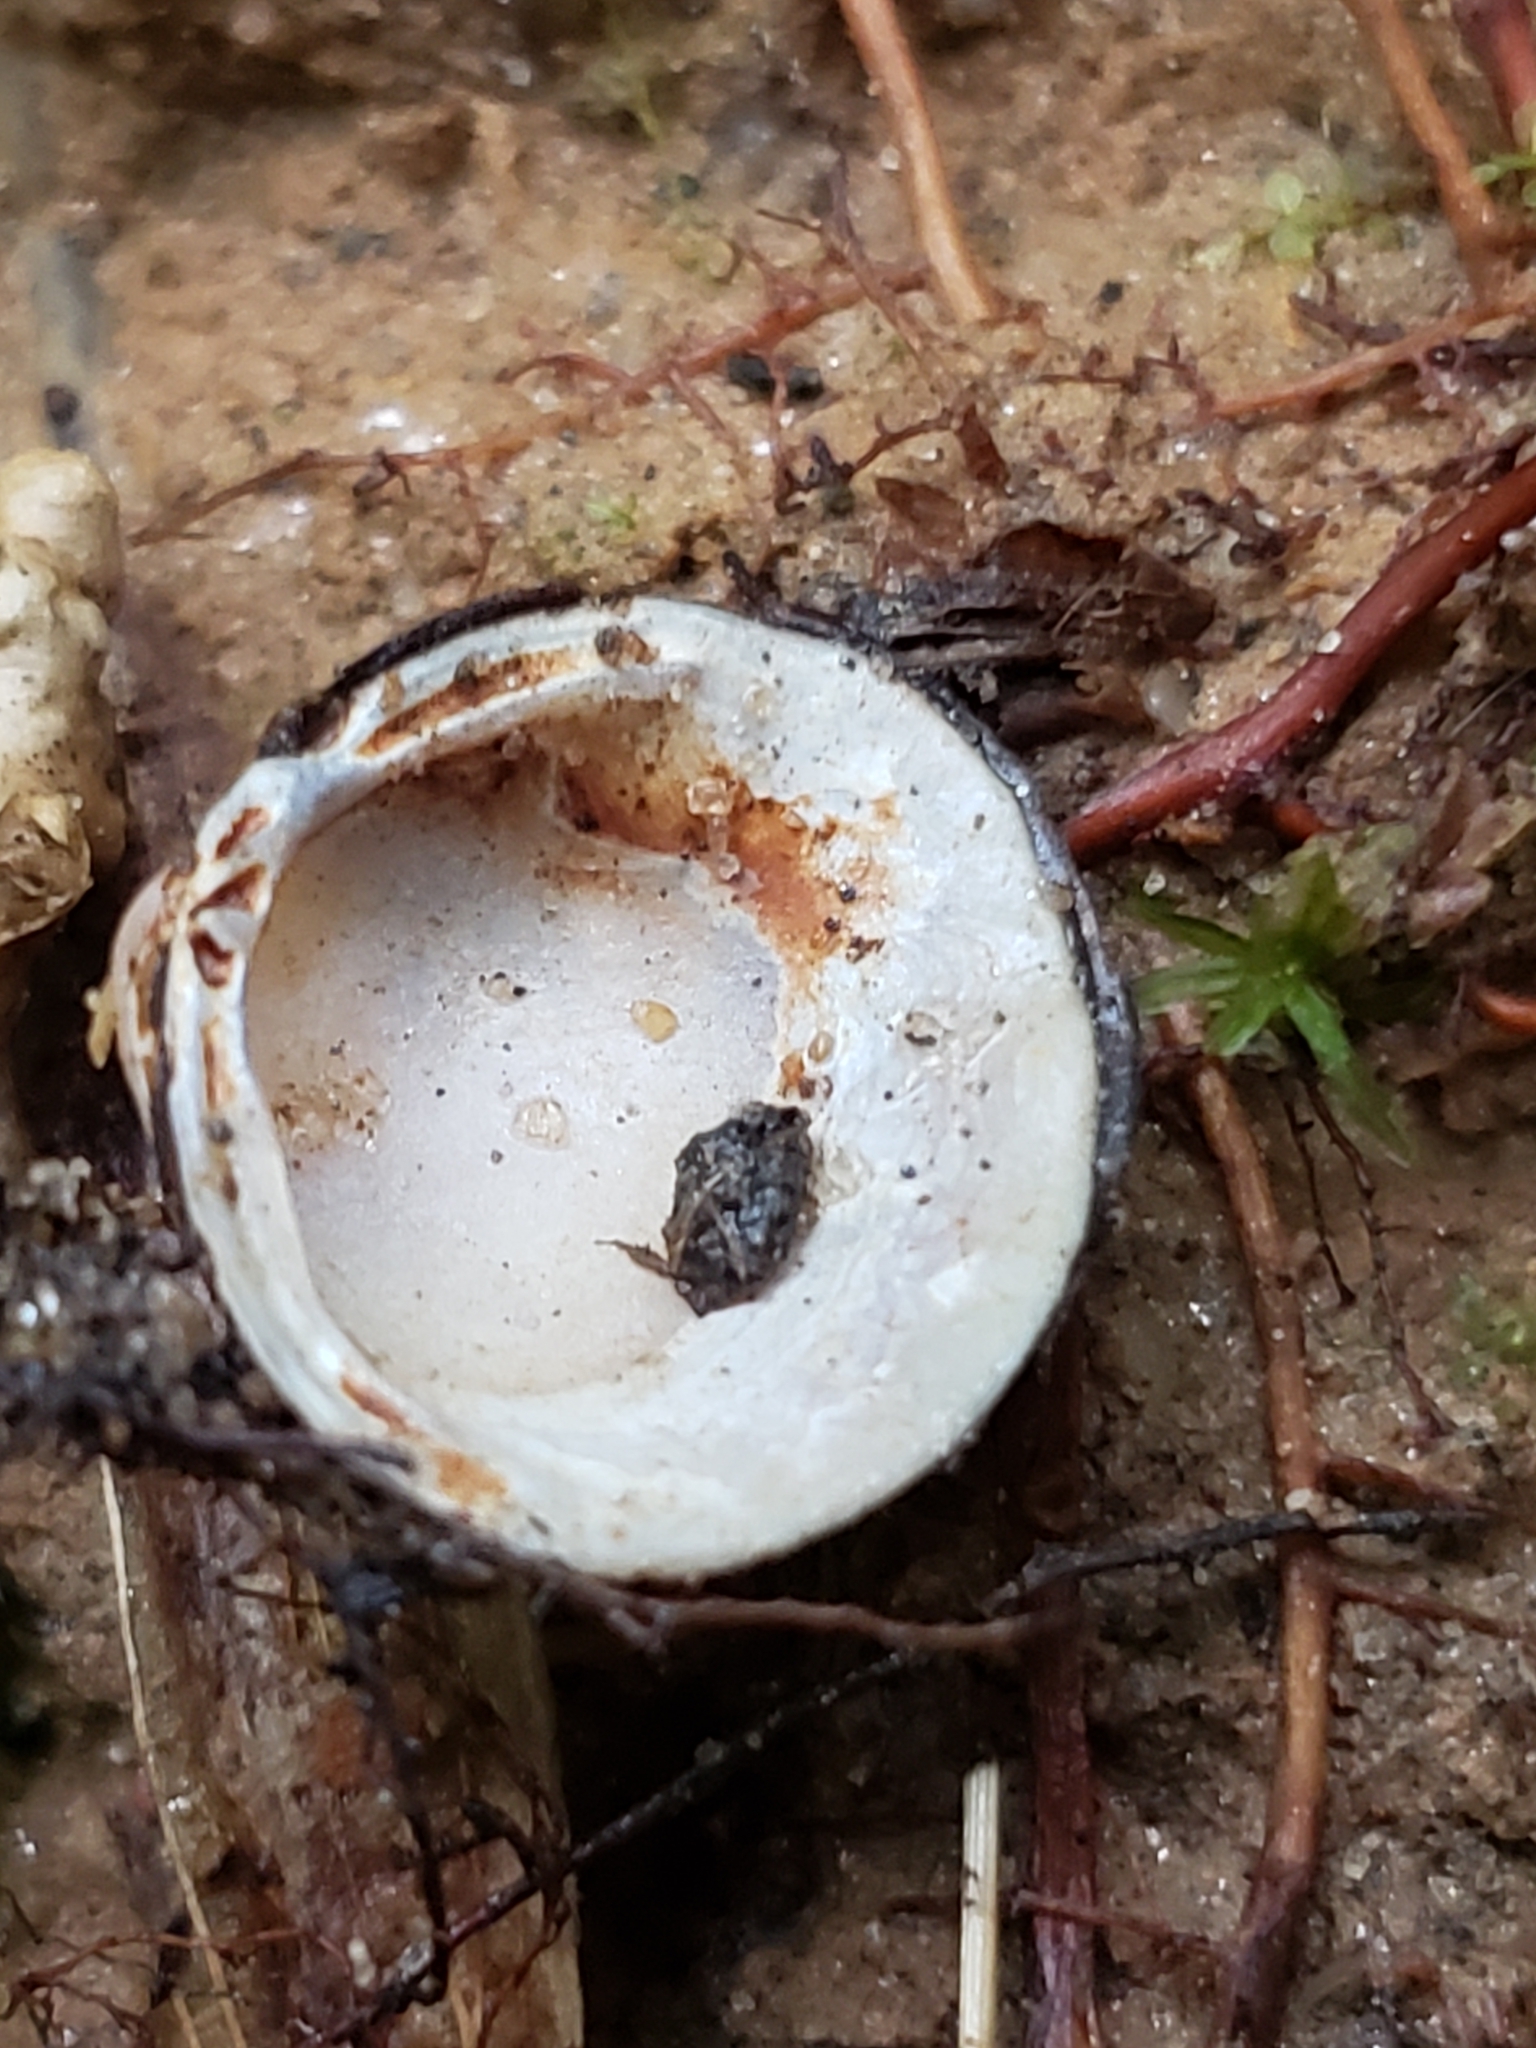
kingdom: Animalia
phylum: Mollusca
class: Bivalvia
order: Venerida
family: Cyrenidae
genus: Corbicula
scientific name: Corbicula fluminea
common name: Asian clam
